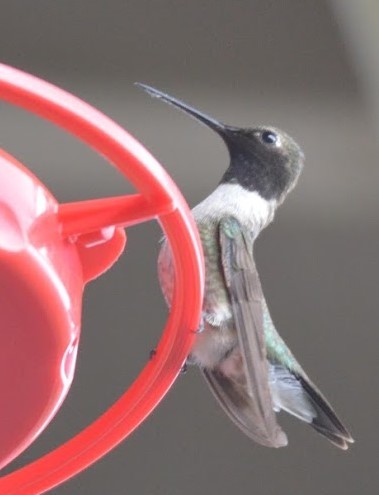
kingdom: Animalia
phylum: Chordata
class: Aves
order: Apodiformes
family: Trochilidae
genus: Archilochus
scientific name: Archilochus alexandri
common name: Black-chinned hummingbird
